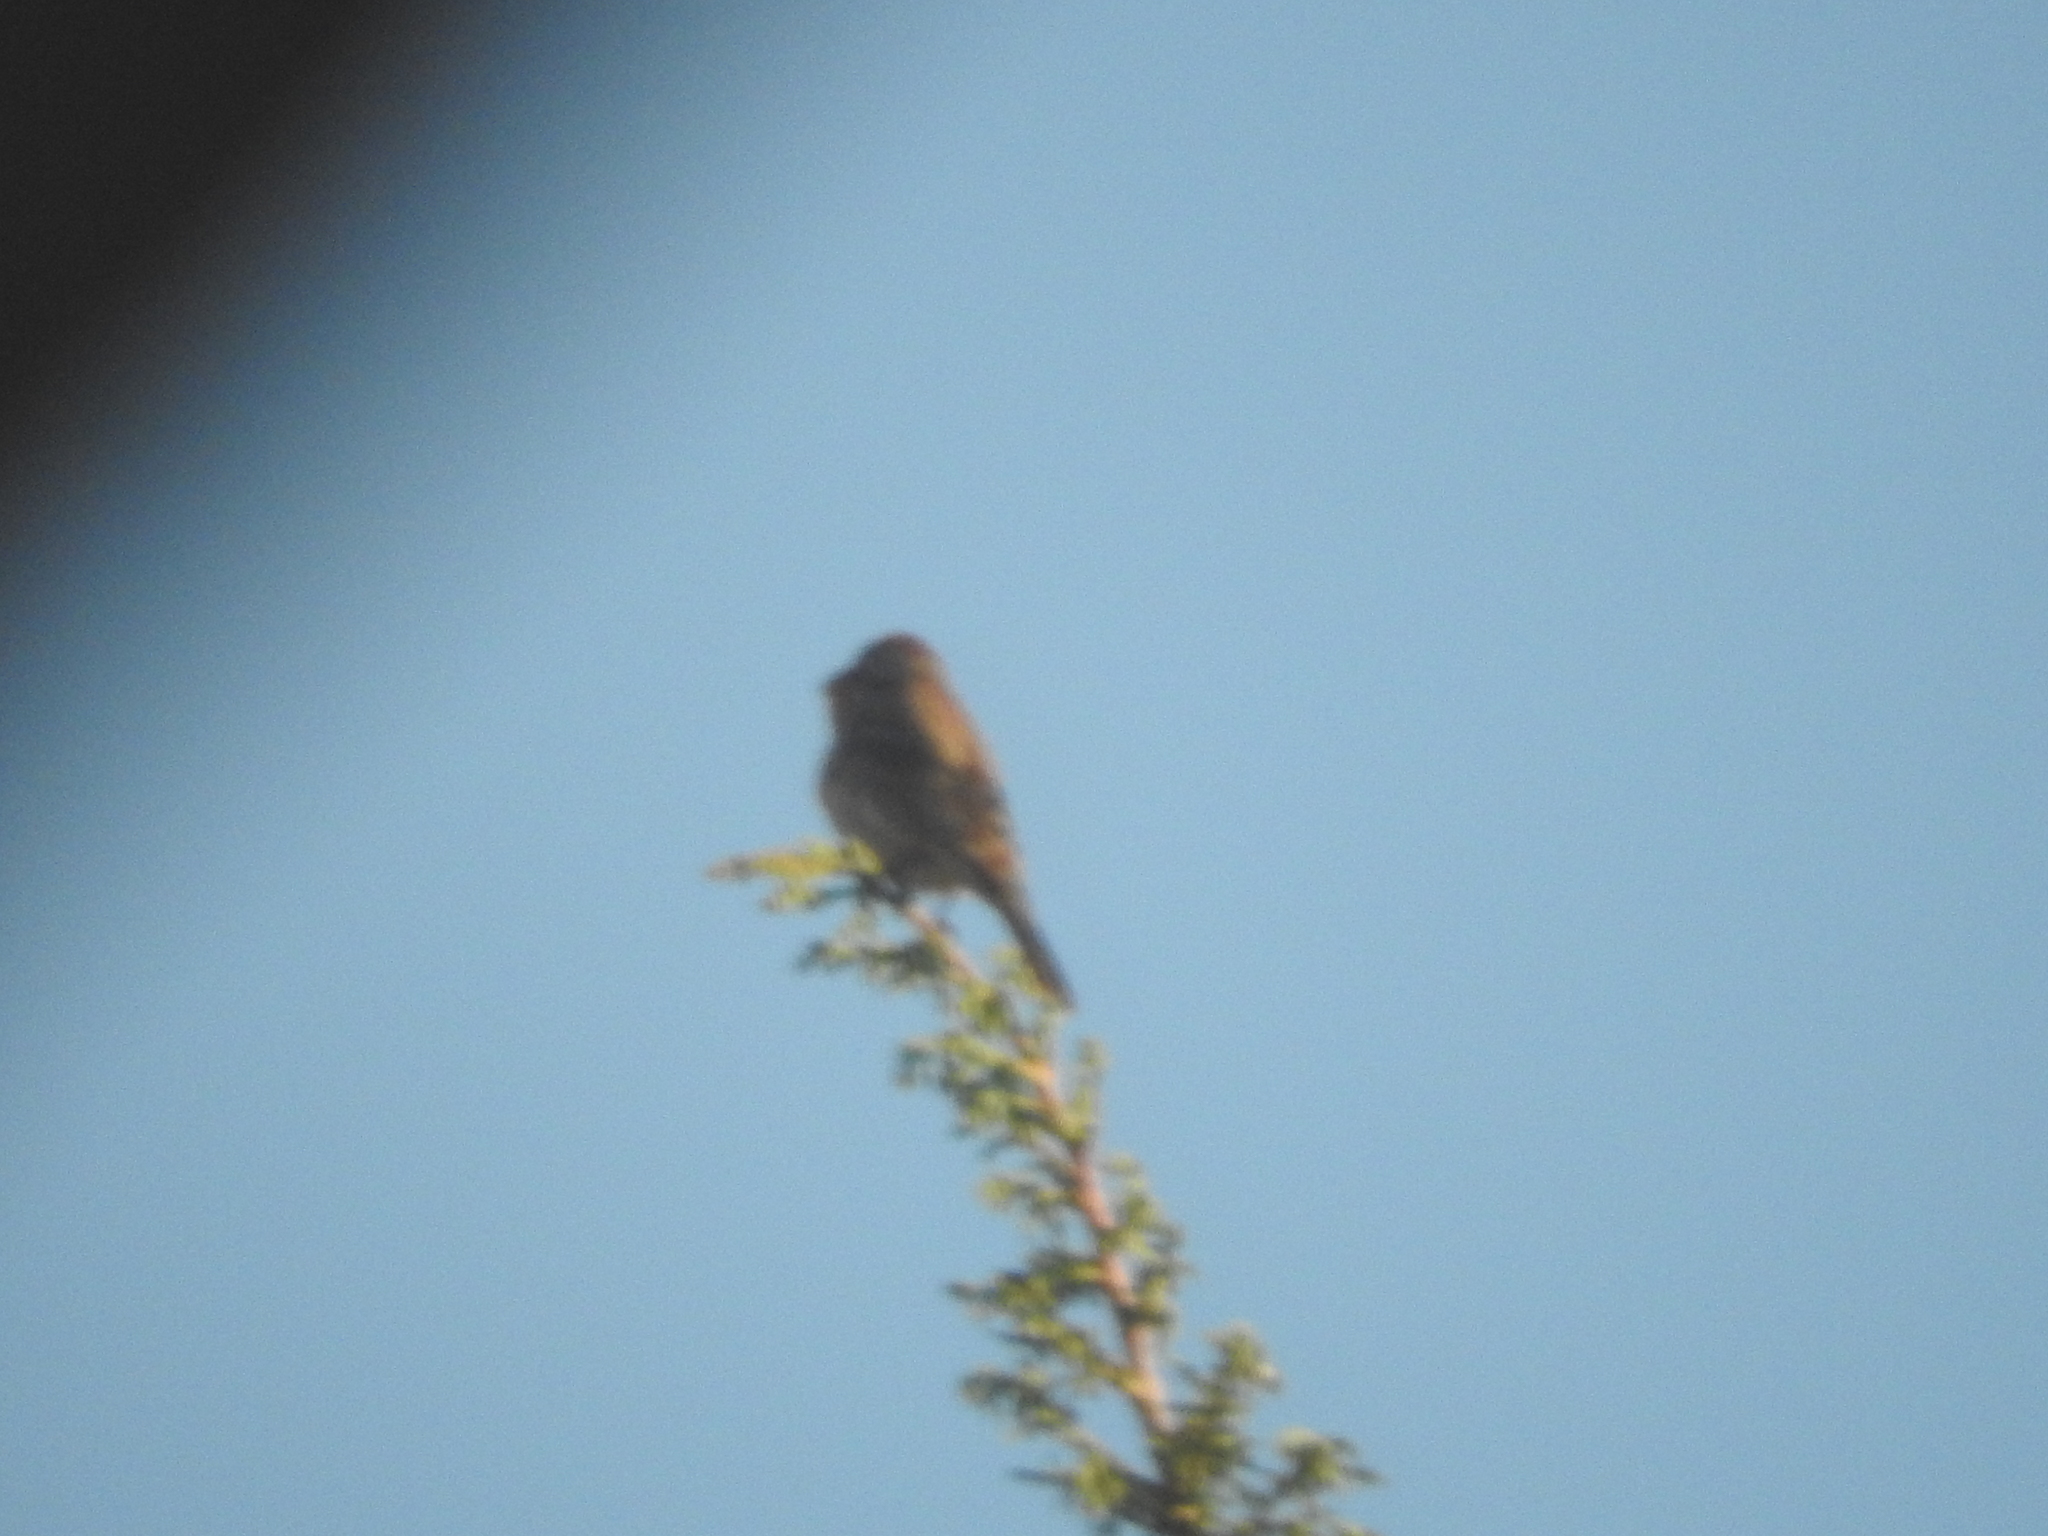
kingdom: Animalia
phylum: Chordata
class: Aves
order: Passeriformes
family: Fringillidae
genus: Haemorhous
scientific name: Haemorhous mexicanus
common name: House finch
